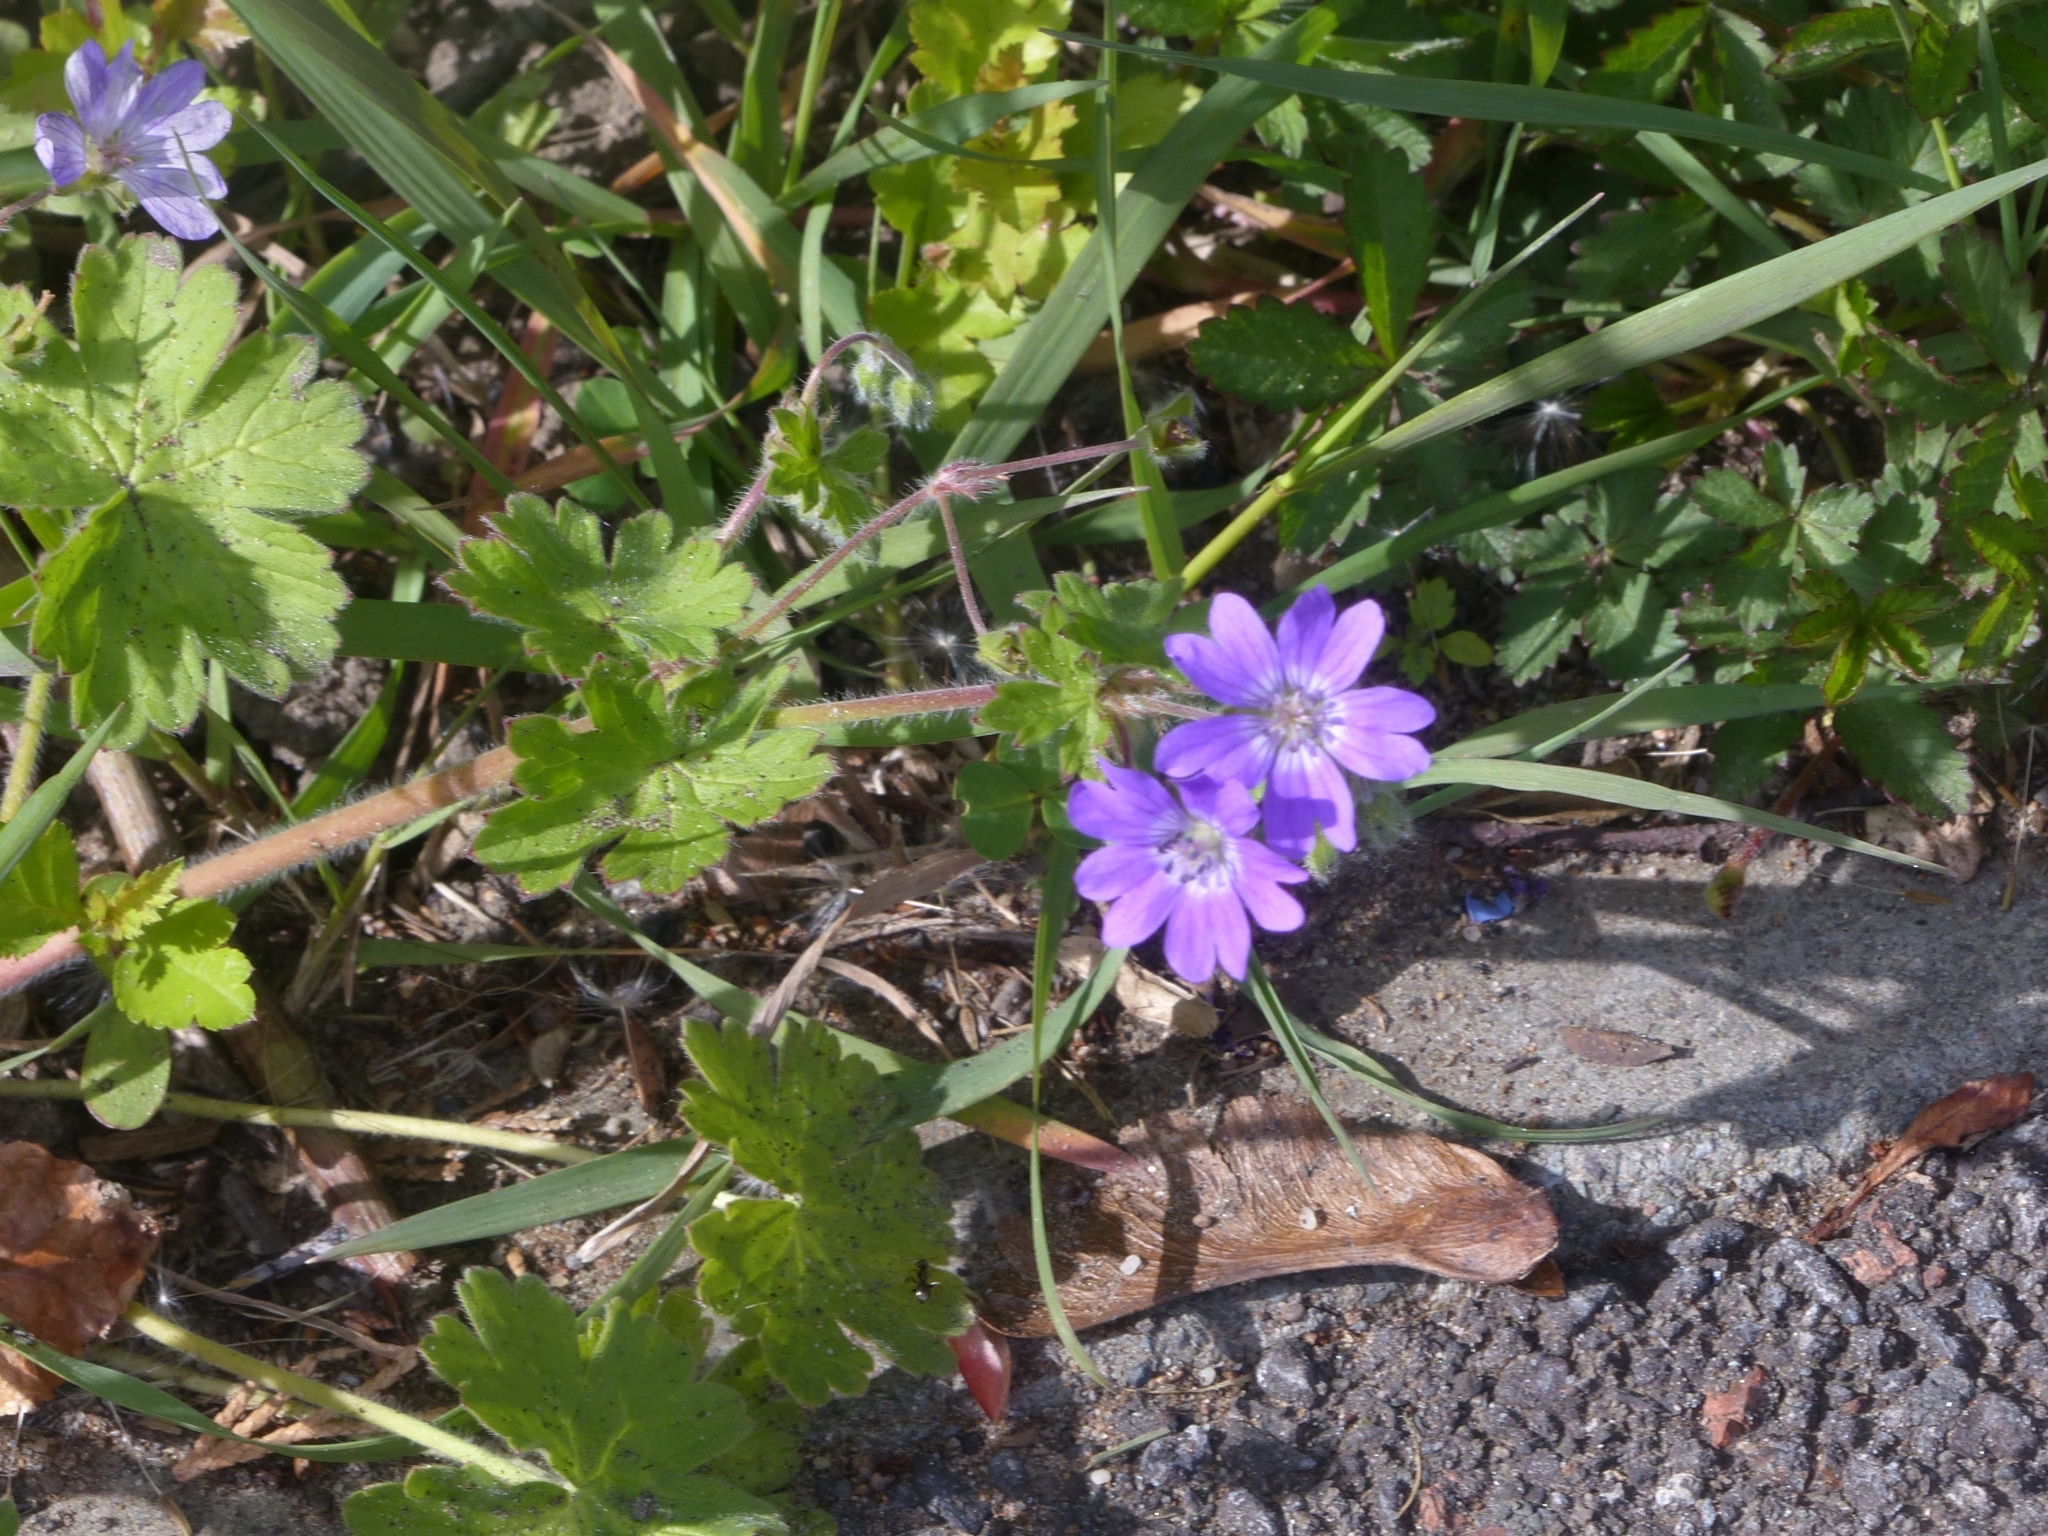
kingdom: Plantae
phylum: Tracheophyta
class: Magnoliopsida
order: Geraniales
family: Geraniaceae
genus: Geranium
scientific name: Geranium pyrenaicum
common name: Hedgerow crane's-bill
